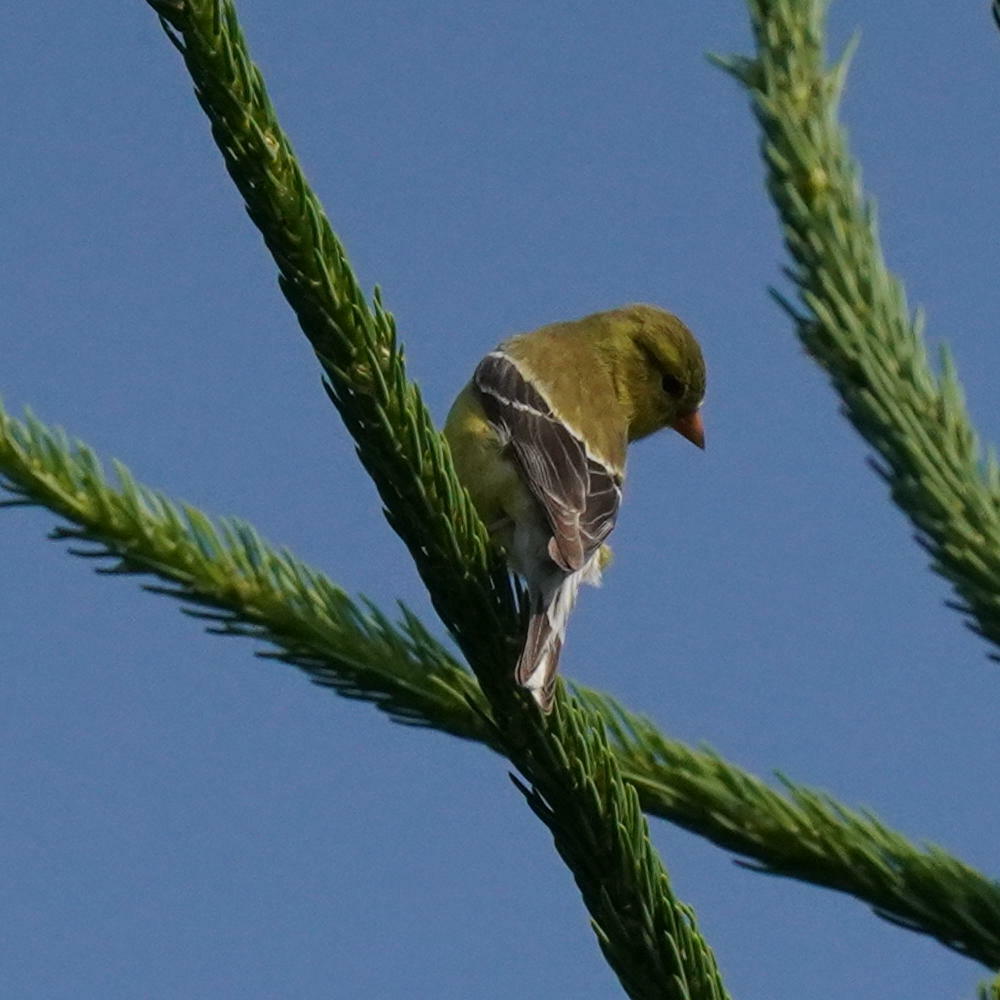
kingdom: Animalia
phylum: Chordata
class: Aves
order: Passeriformes
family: Fringillidae
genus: Spinus
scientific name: Spinus tristis
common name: American goldfinch
